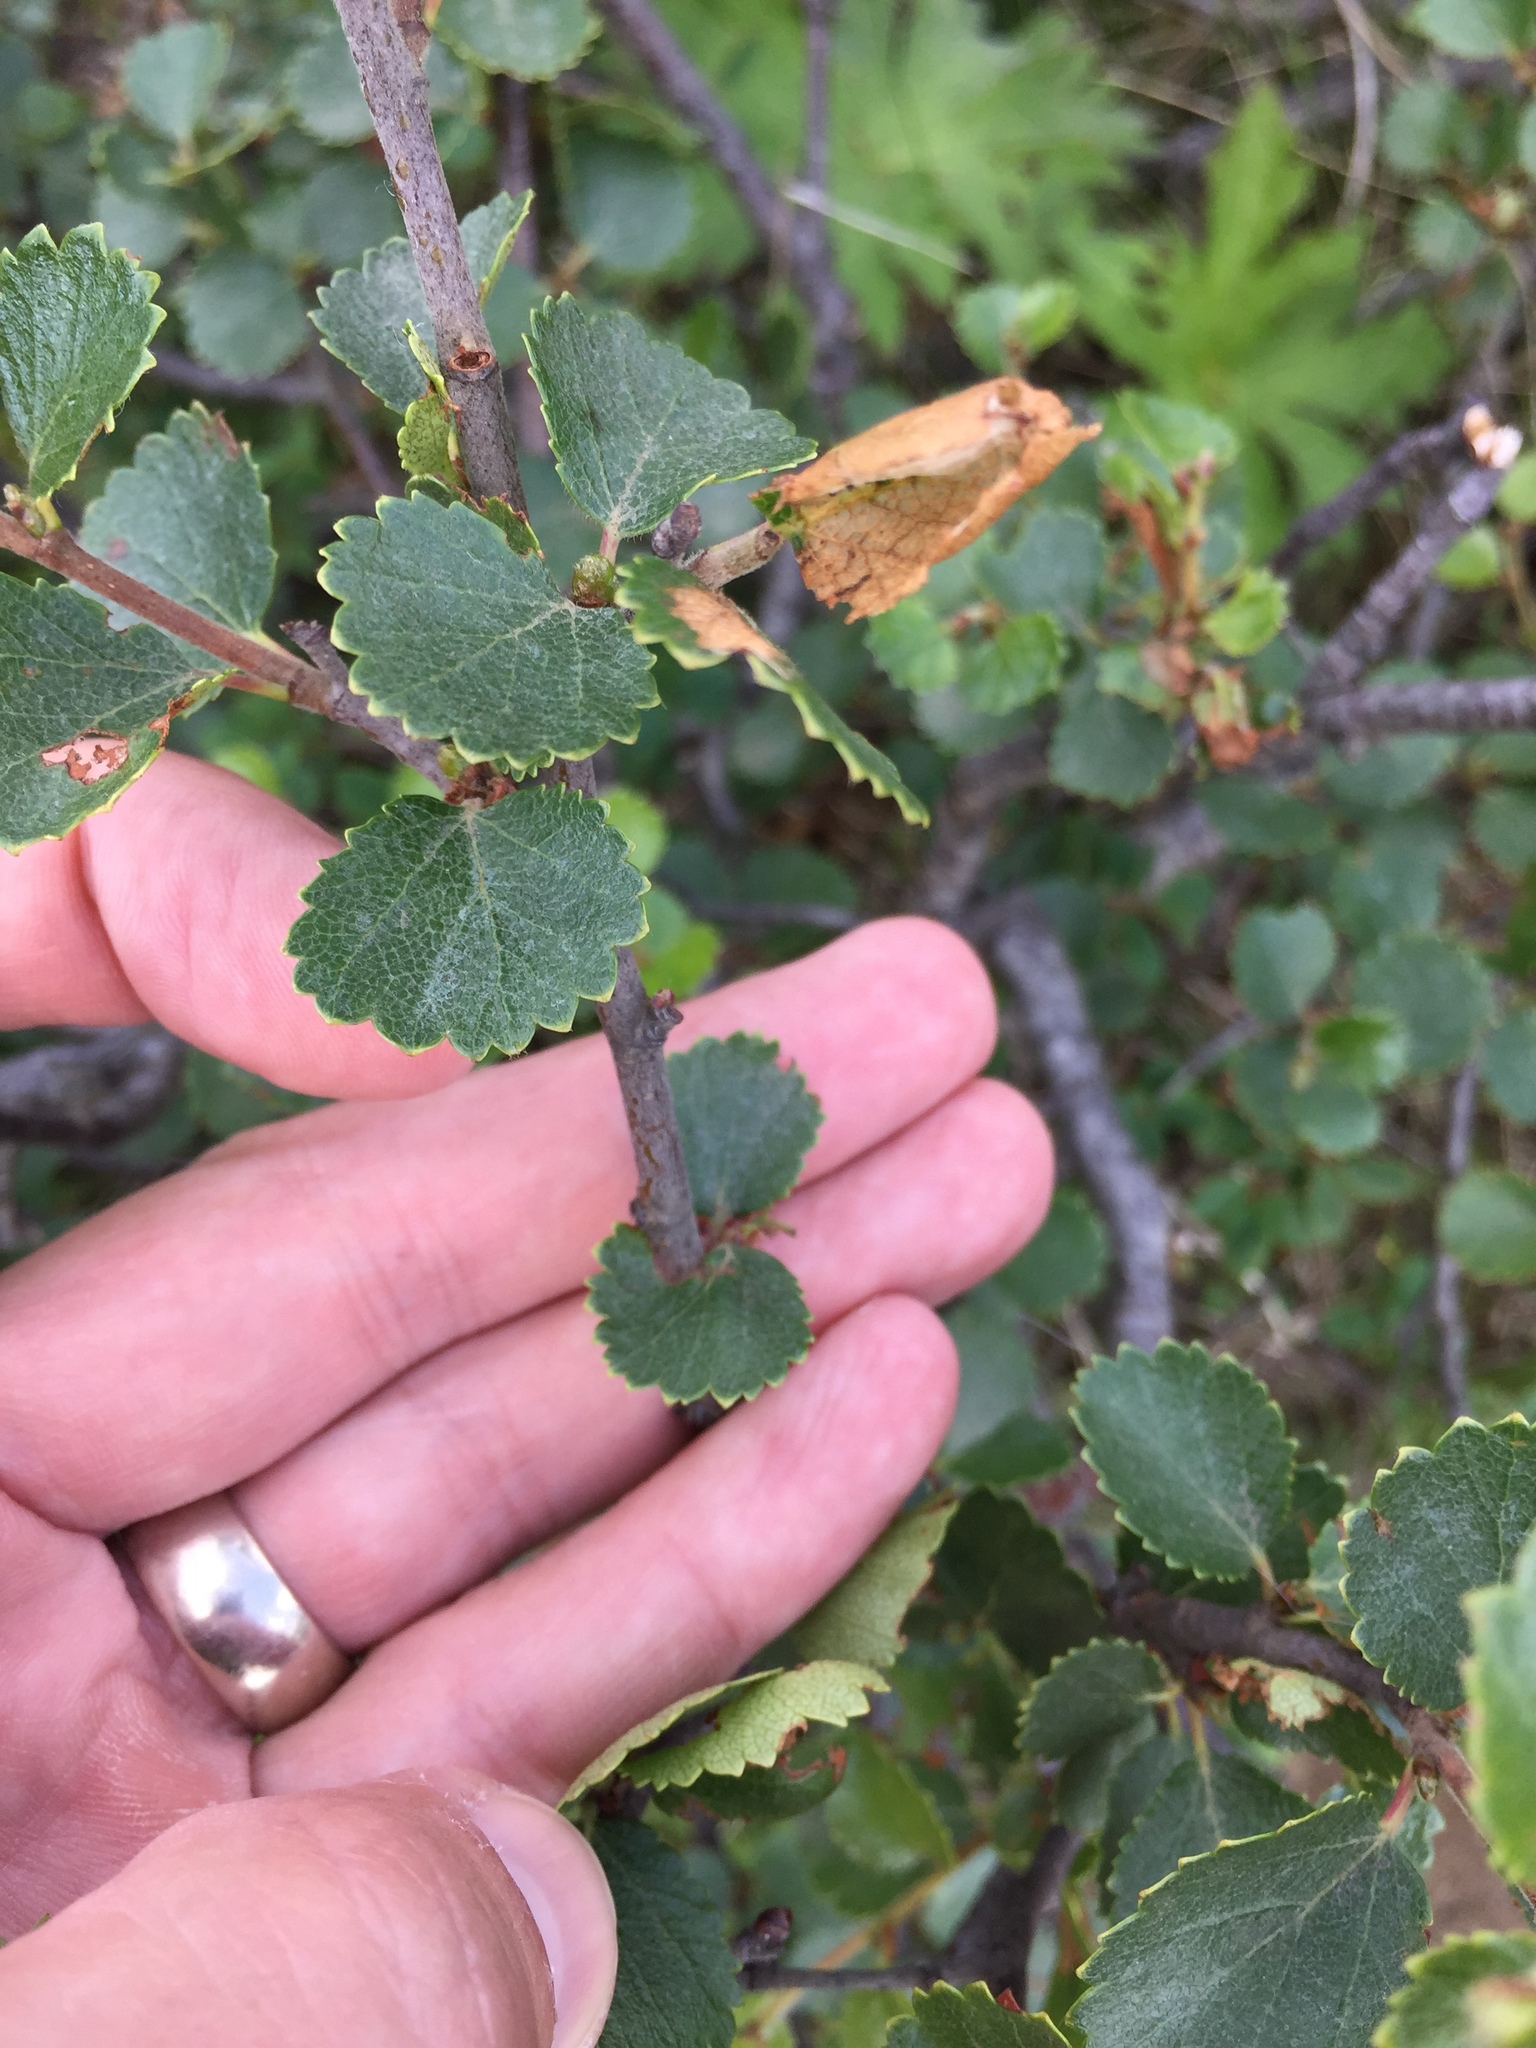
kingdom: Plantae
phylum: Tracheophyta
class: Magnoliopsida
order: Fagales
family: Betulaceae
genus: Betula
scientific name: Betula nana
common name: Arctic dwarf birch
